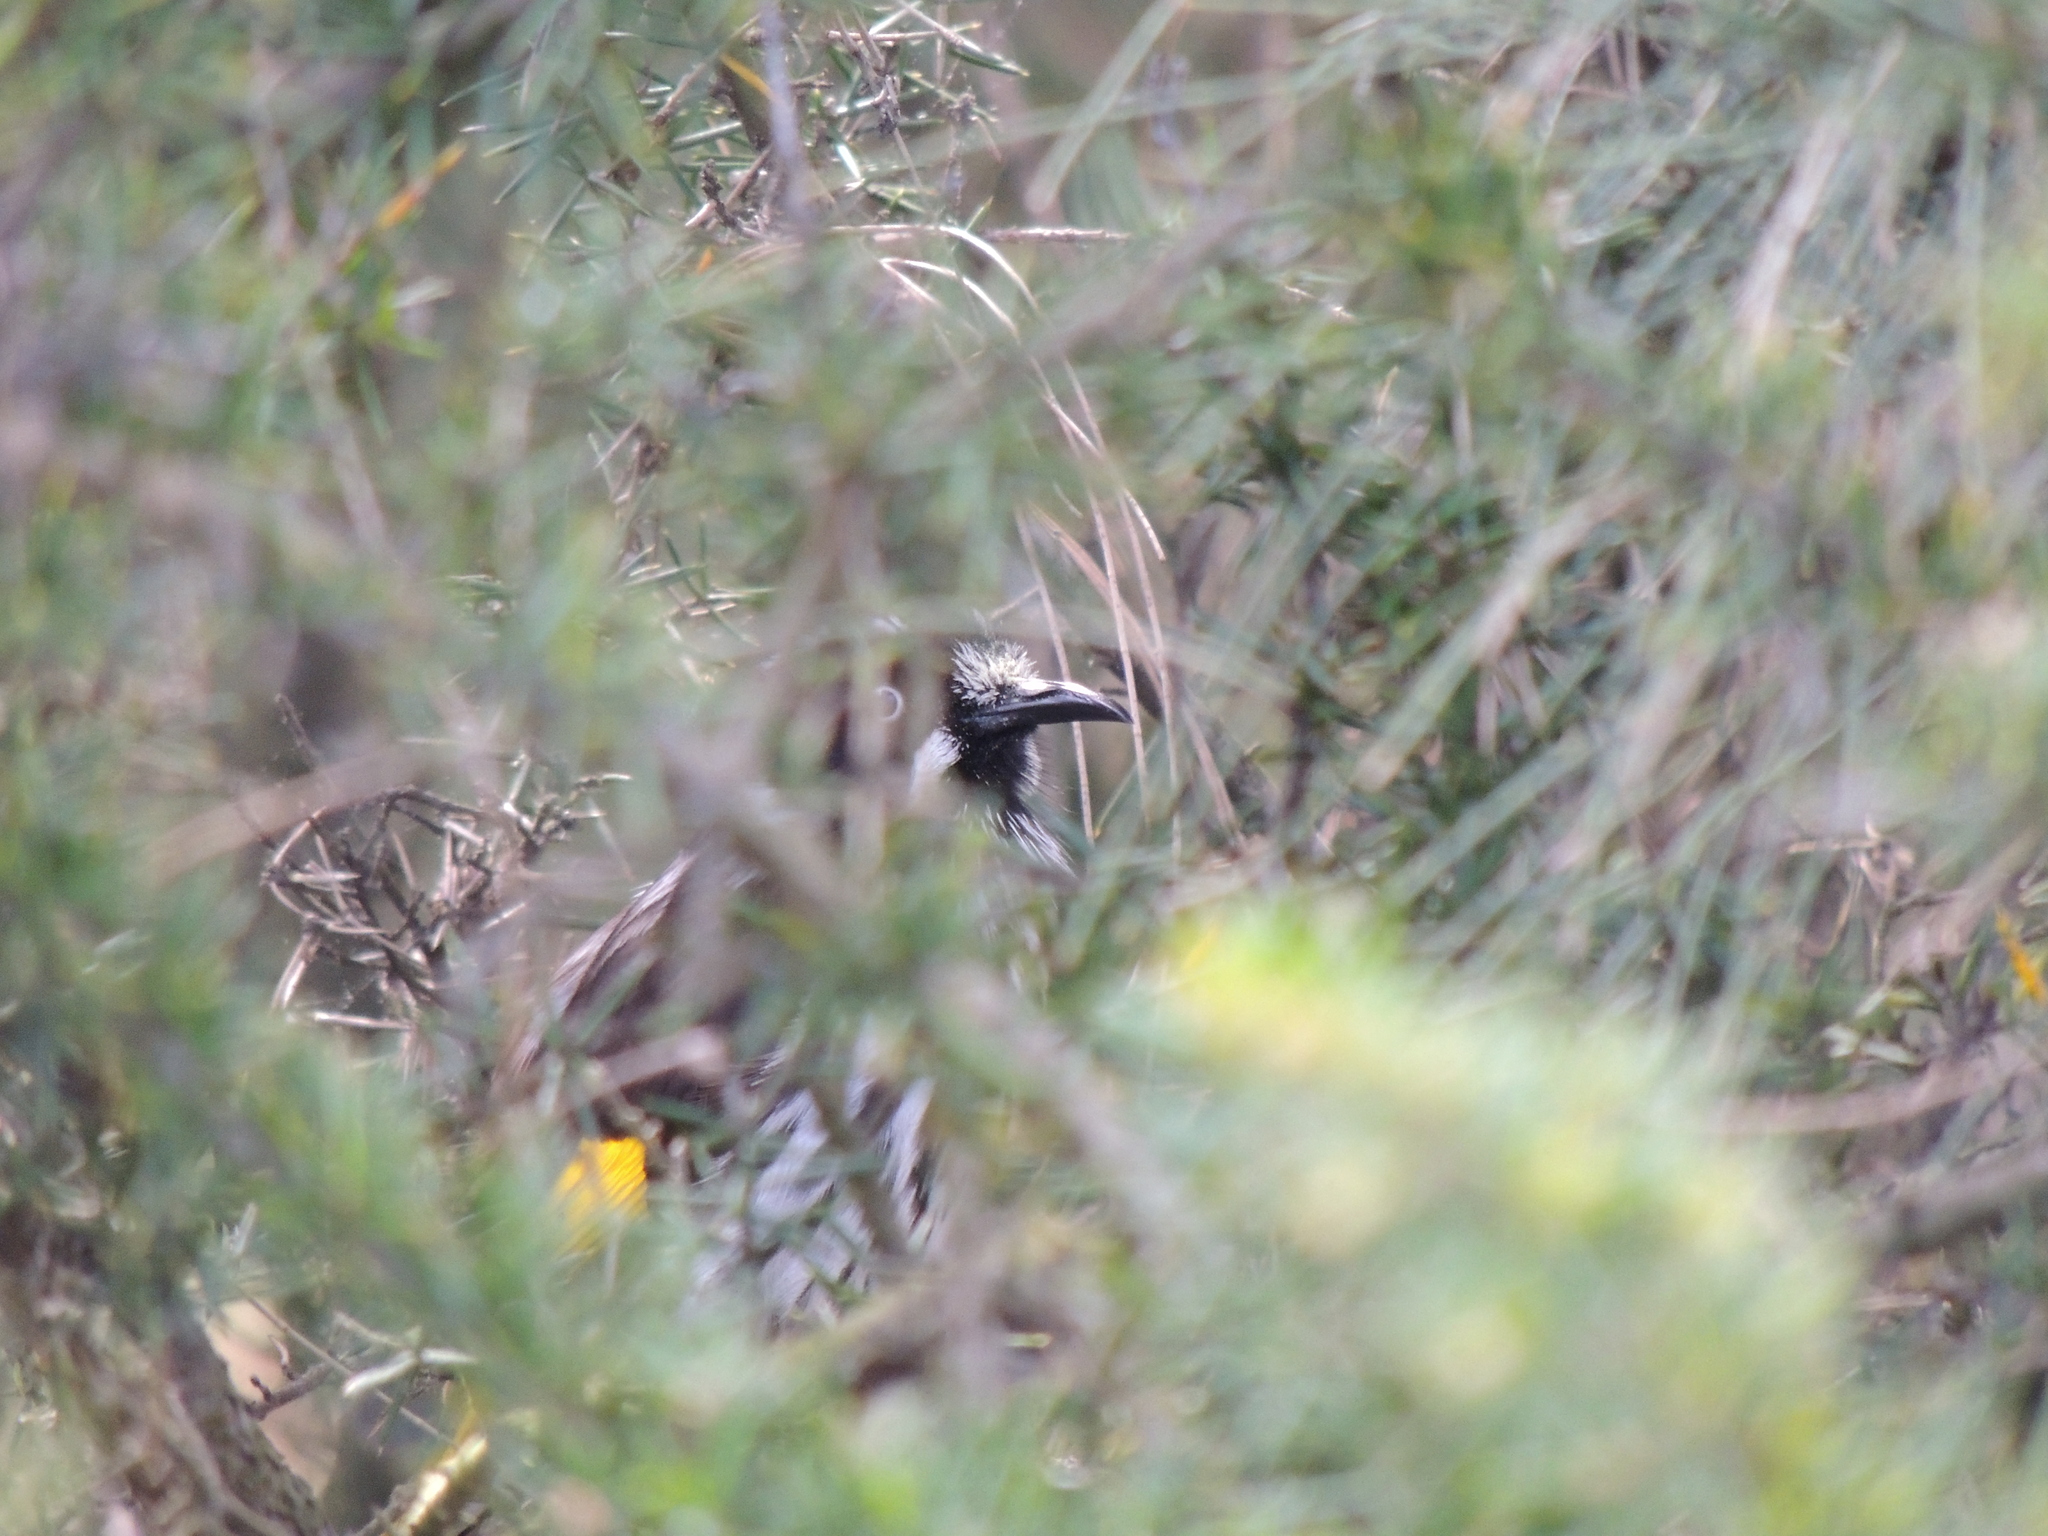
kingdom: Animalia
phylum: Chordata
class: Aves
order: Passeriformes
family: Meliphagidae
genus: Phylidonyris
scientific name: Phylidonyris novaehollandiae
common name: New holland honeyeater
